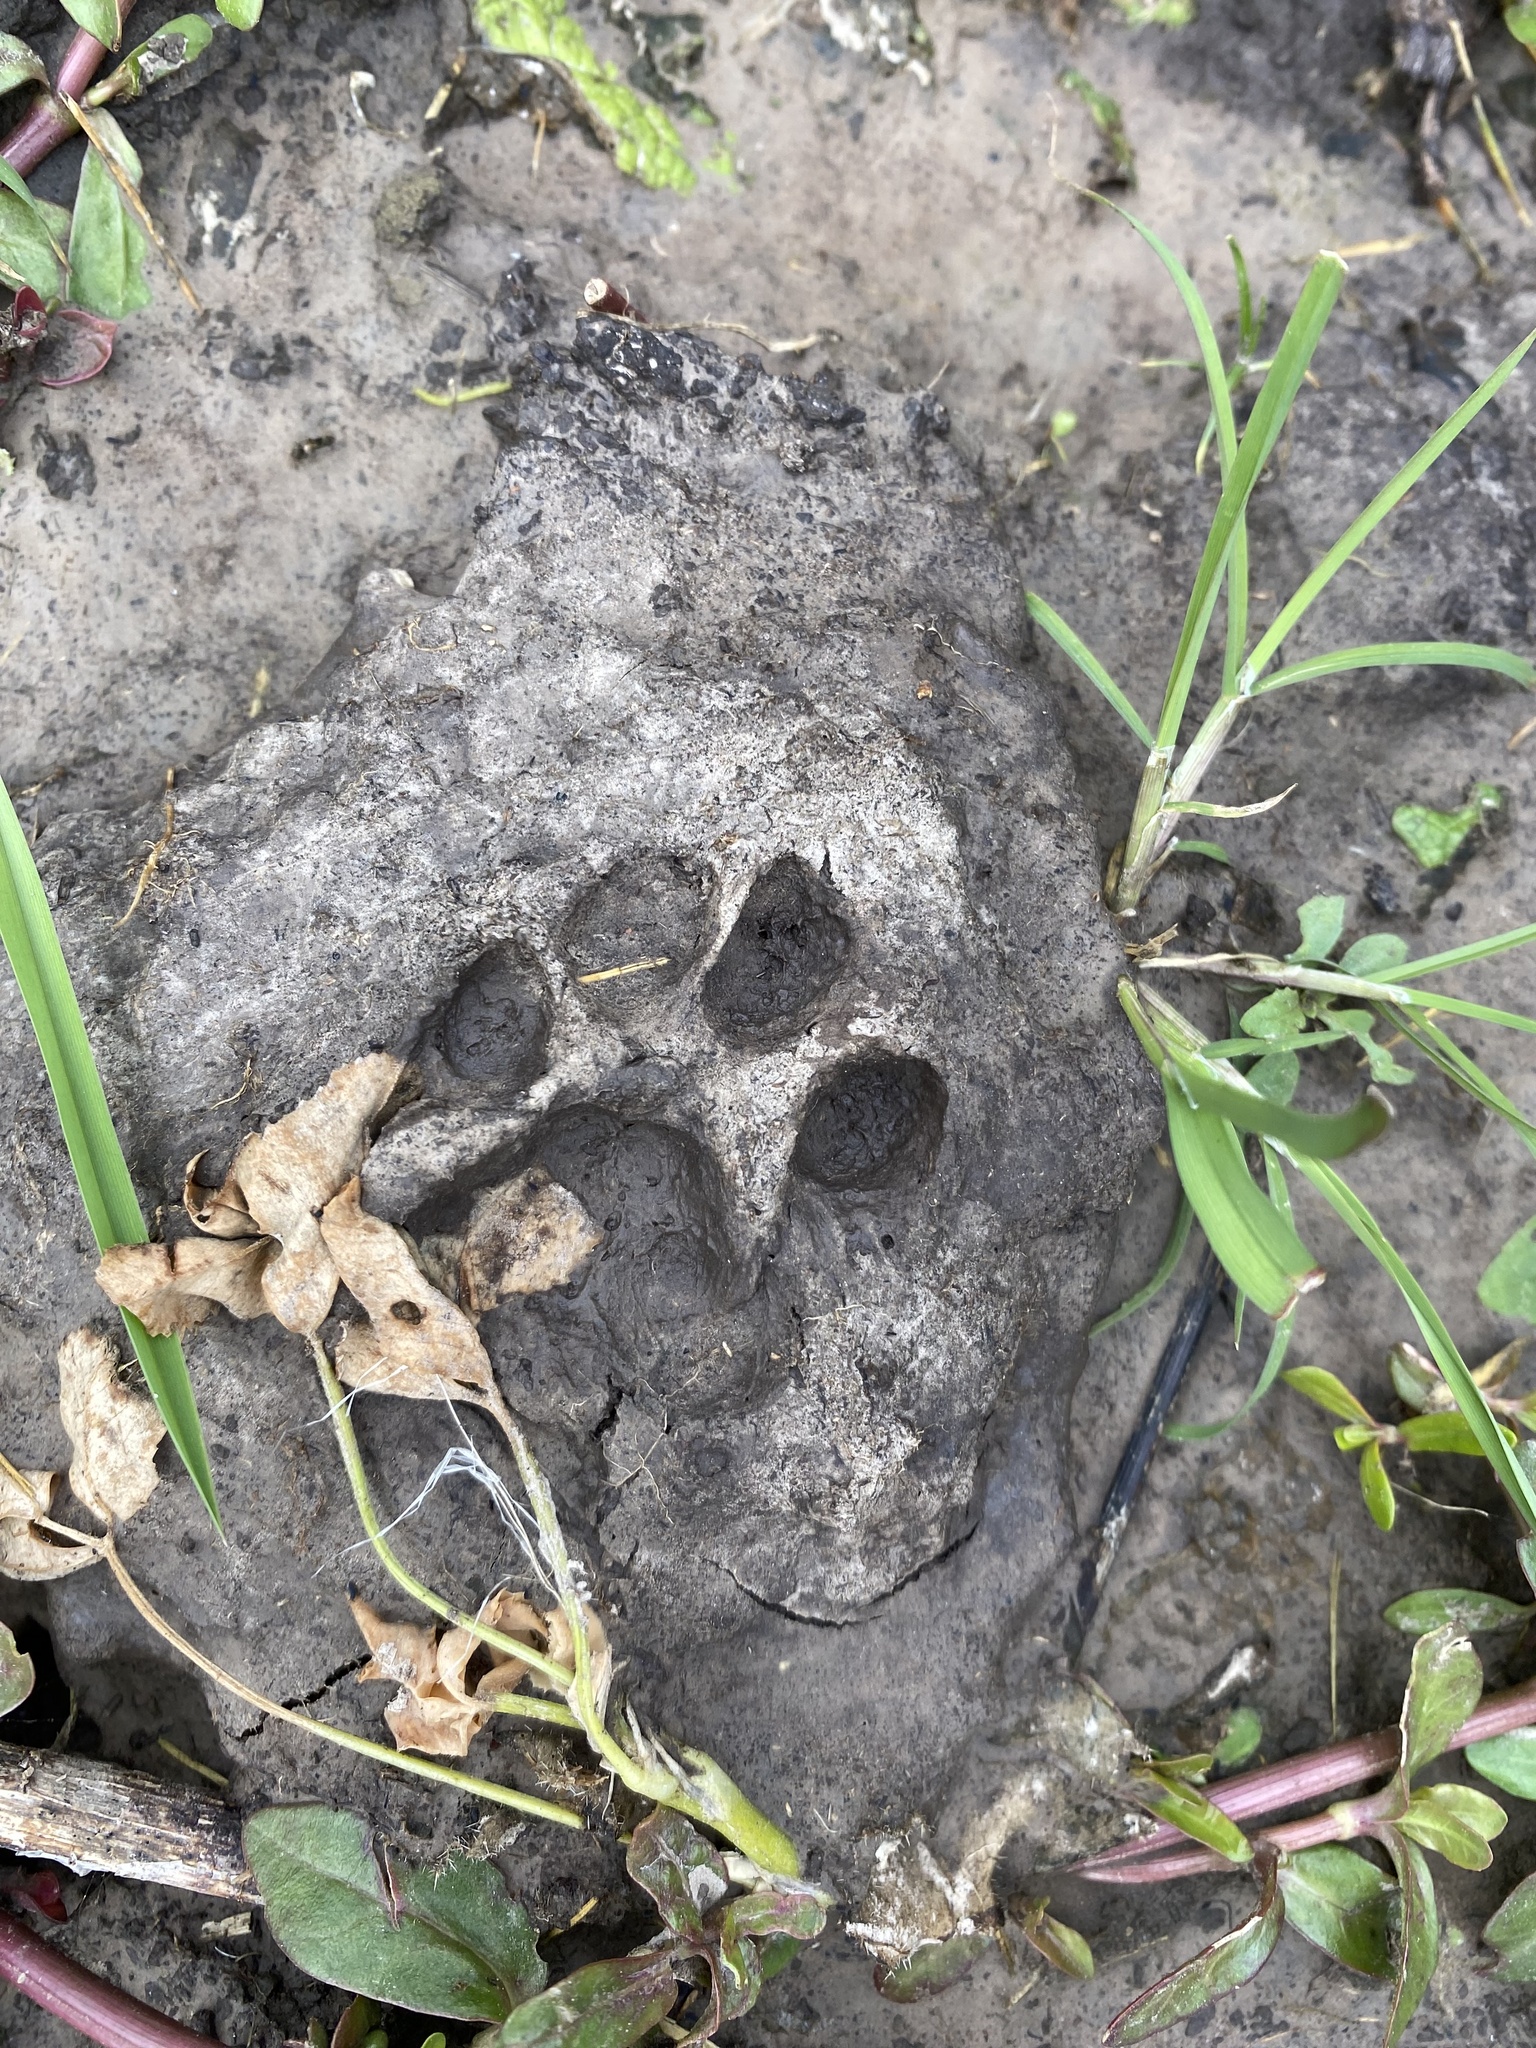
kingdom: Animalia
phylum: Chordata
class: Mammalia
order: Carnivora
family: Felidae
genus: Felis
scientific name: Felis catus
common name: Domestic cat
